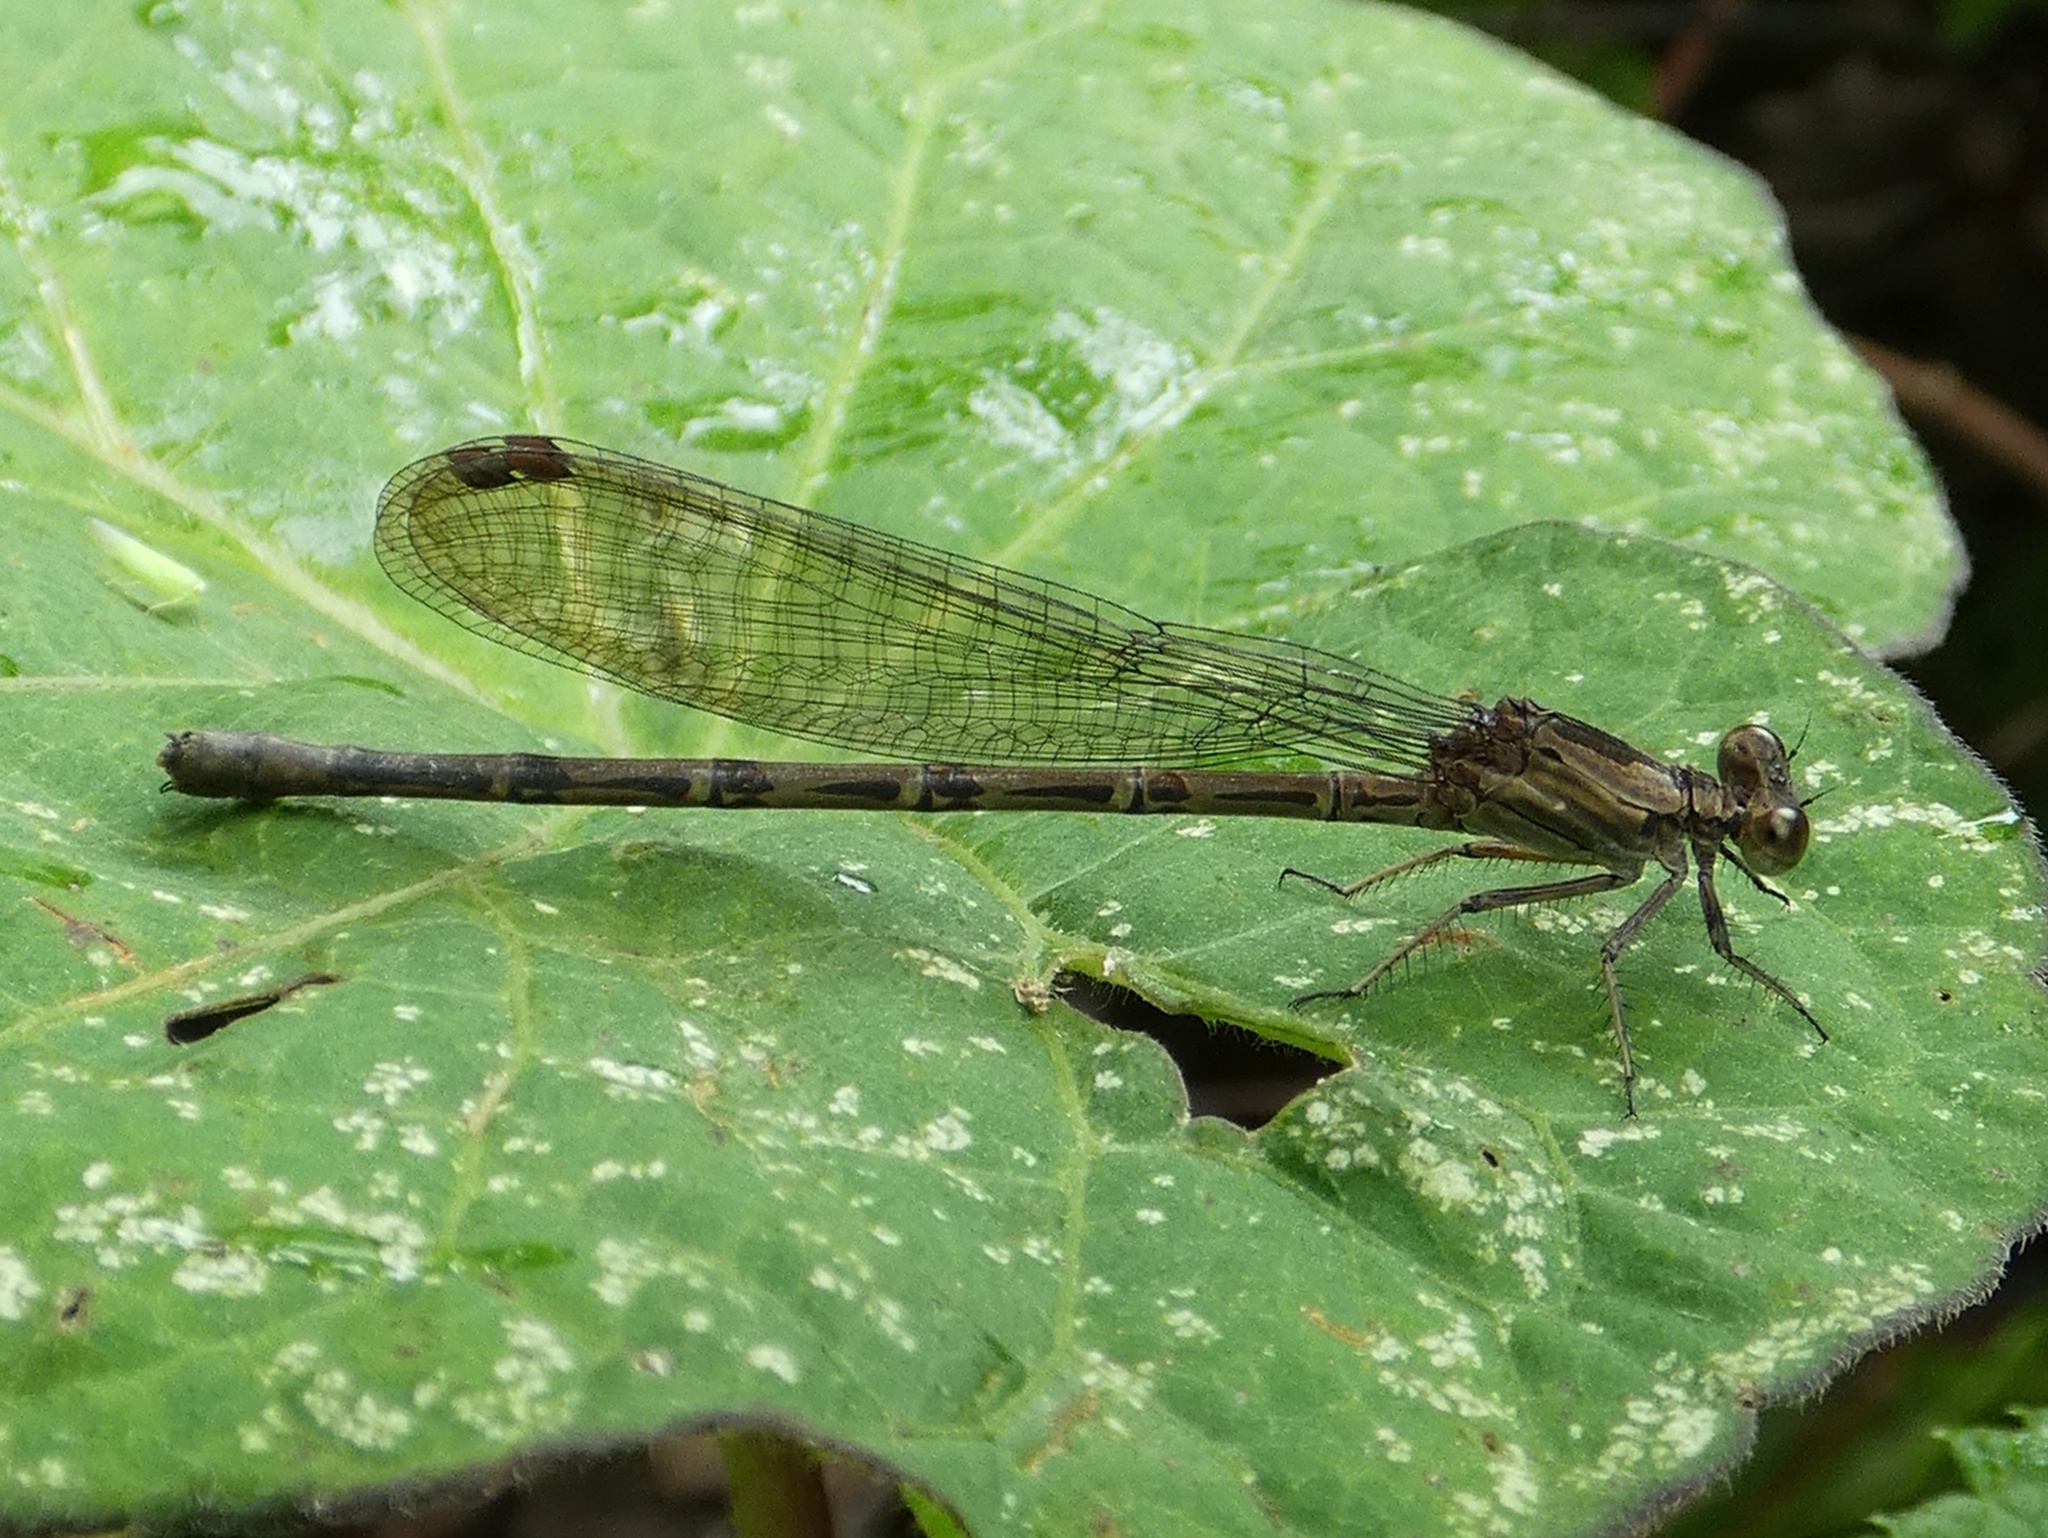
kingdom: Animalia
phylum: Arthropoda
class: Insecta
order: Odonata
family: Coenagrionidae
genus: Argia
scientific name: Argia fissa
